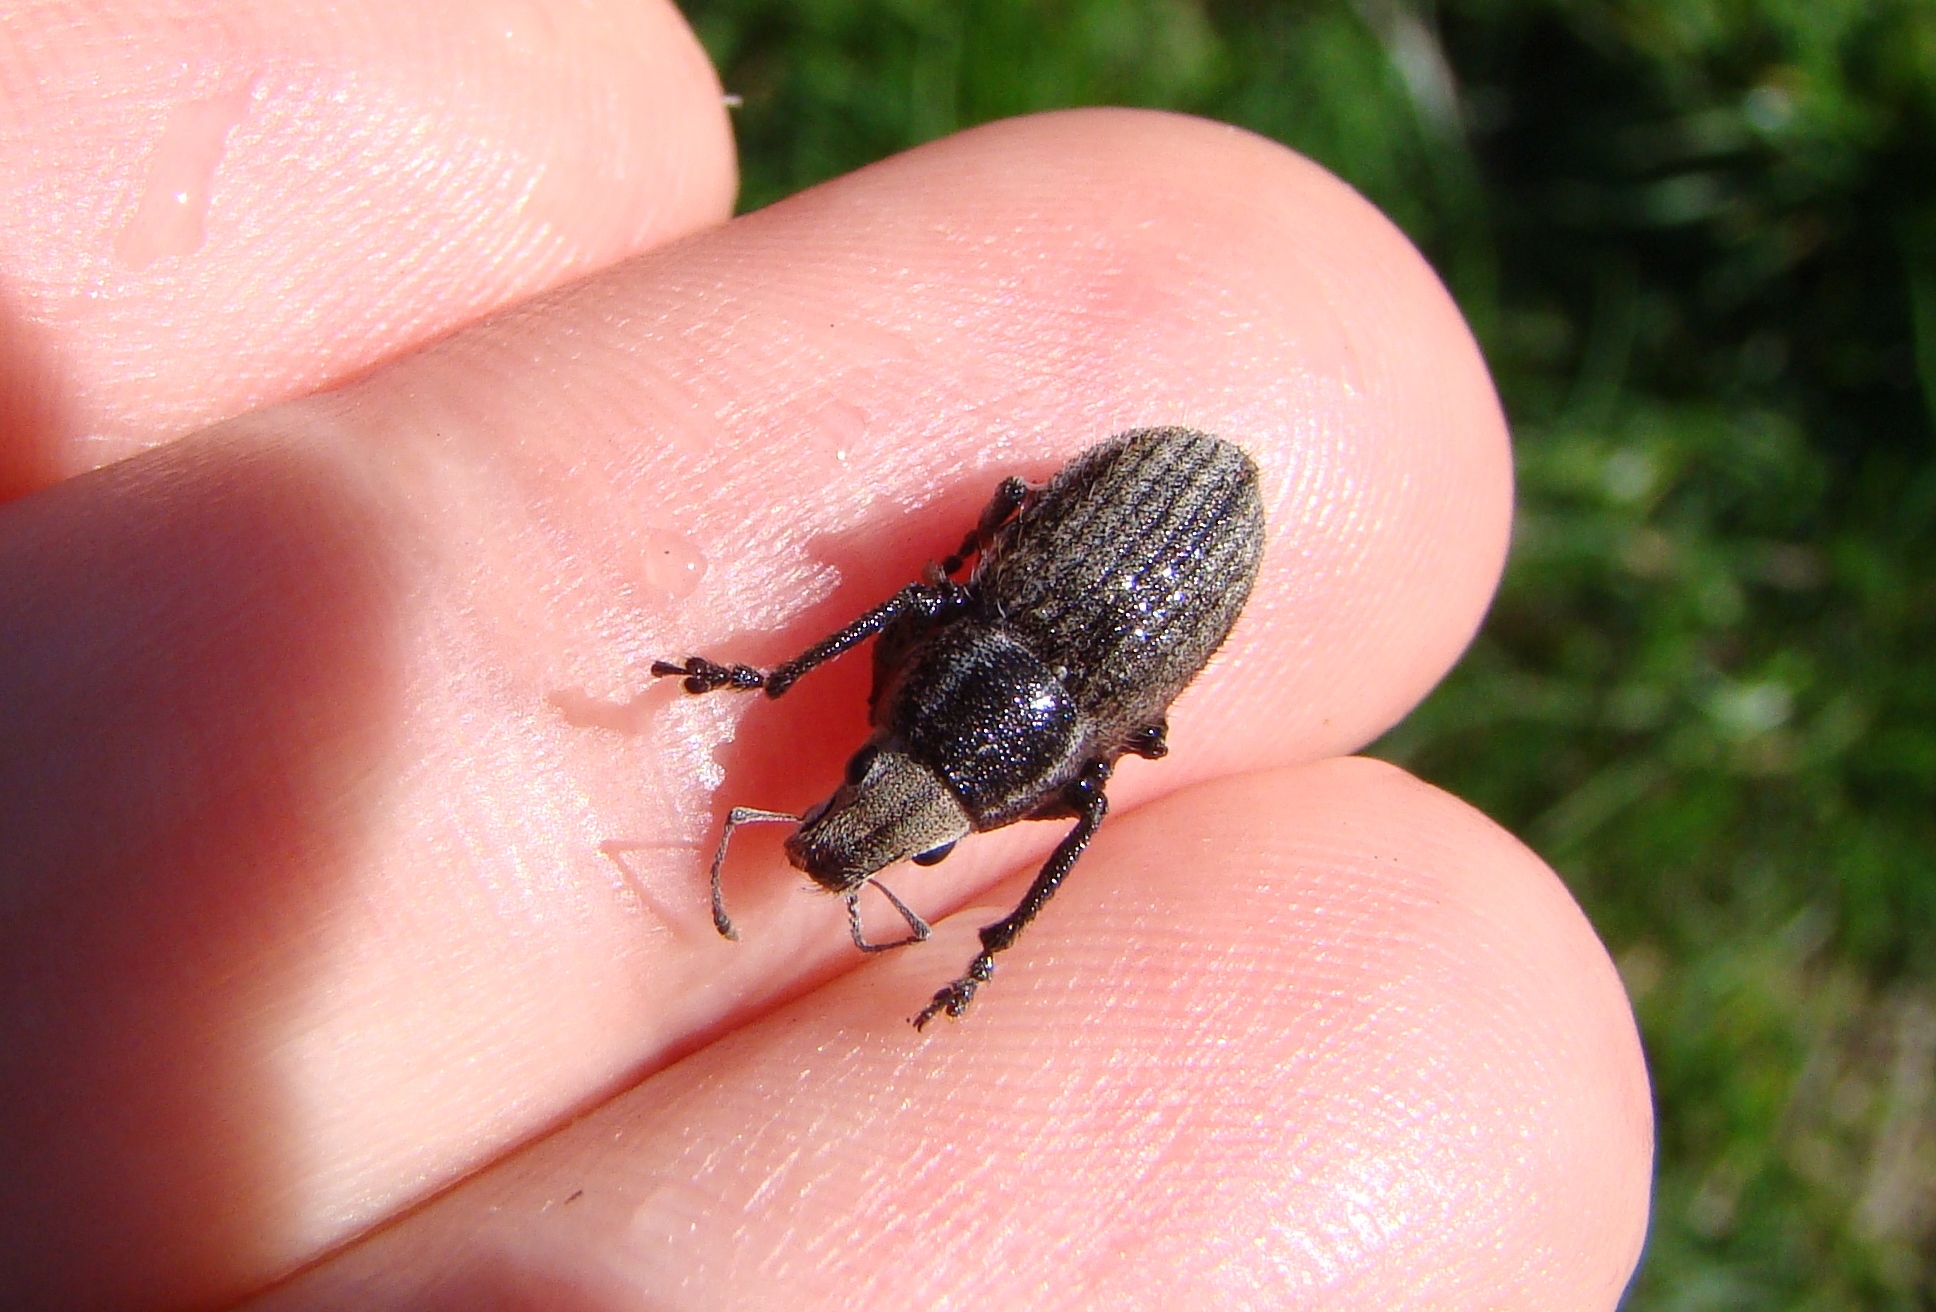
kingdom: Animalia
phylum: Arthropoda
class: Insecta
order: Coleoptera
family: Curculionidae
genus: Naupactus
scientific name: Naupactus leucoloma
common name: Whitefringed beetle
